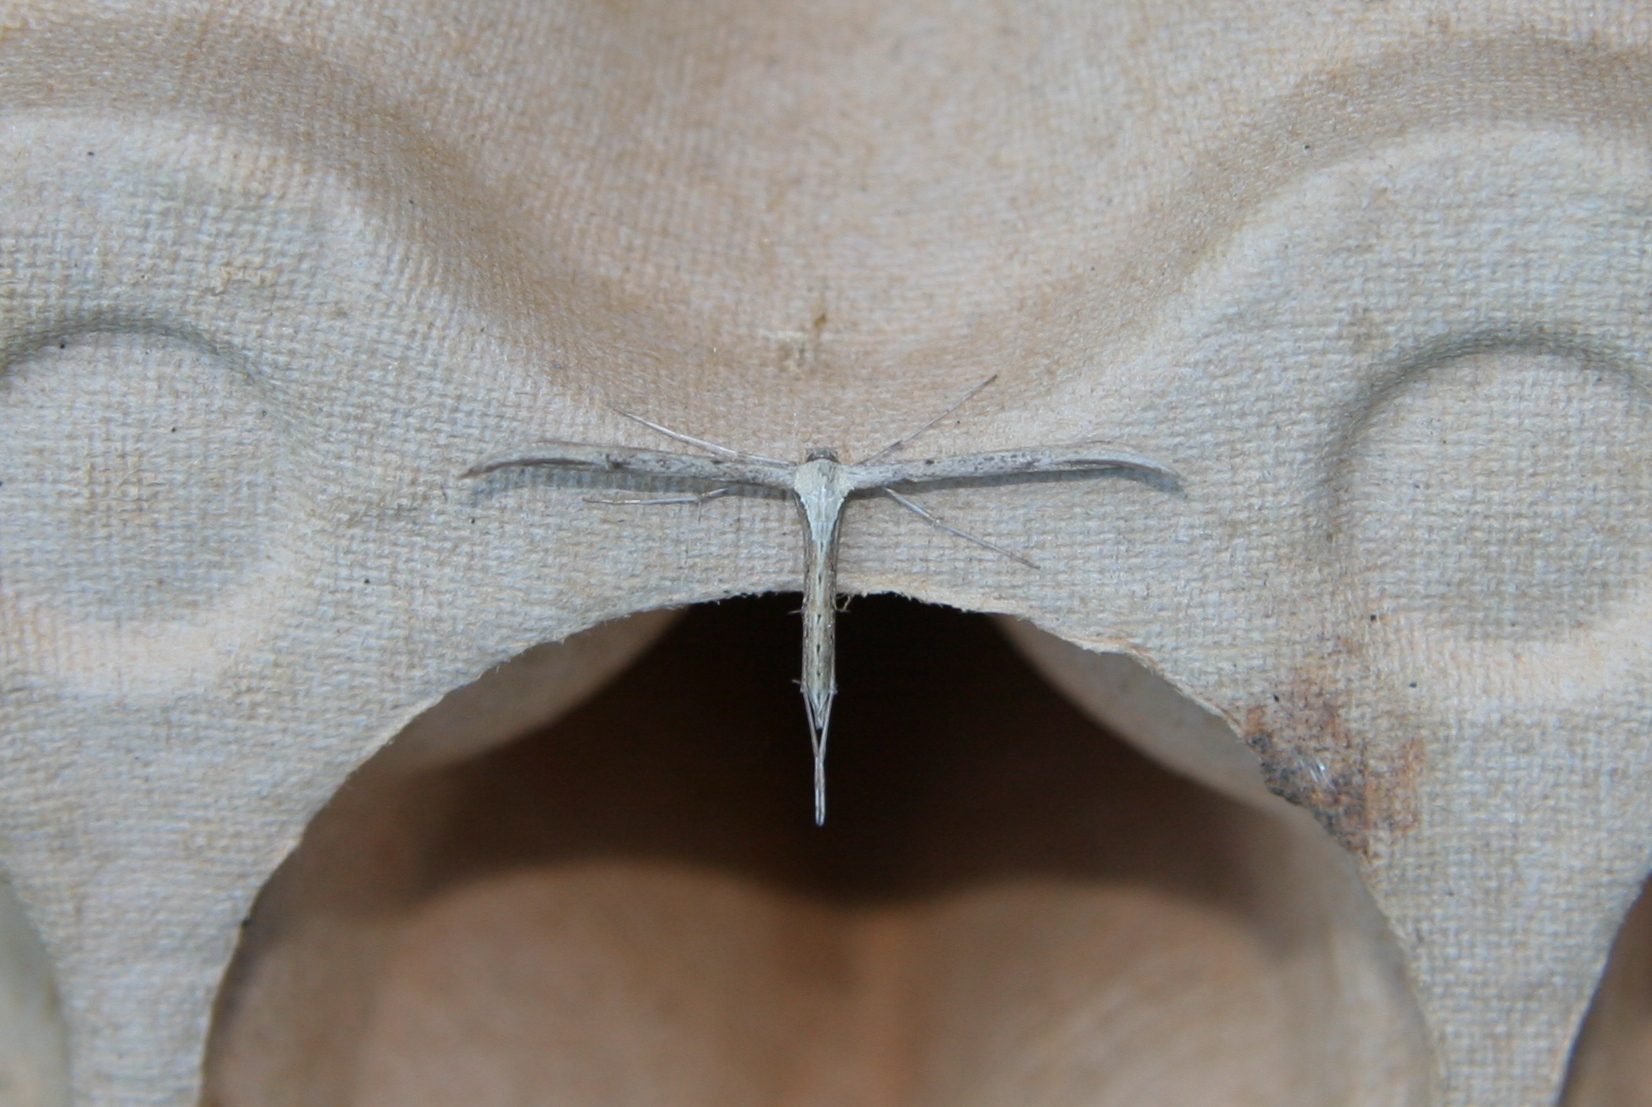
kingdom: Animalia
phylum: Arthropoda
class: Insecta
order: Lepidoptera
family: Pterophoridae
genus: Emmelina
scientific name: Emmelina monodactyla
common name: Common plume
